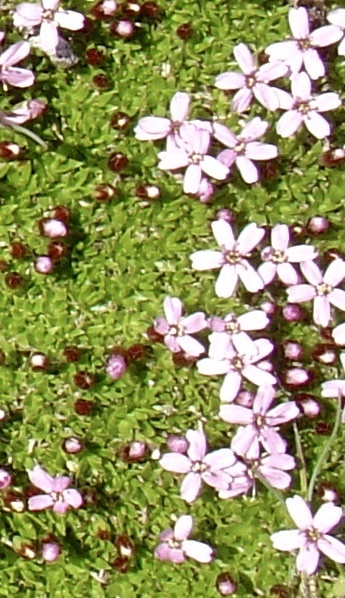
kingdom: Plantae
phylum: Tracheophyta
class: Magnoliopsida
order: Caryophyllales
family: Caryophyllaceae
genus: Silene
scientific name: Silene acaulis
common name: Moss campion
